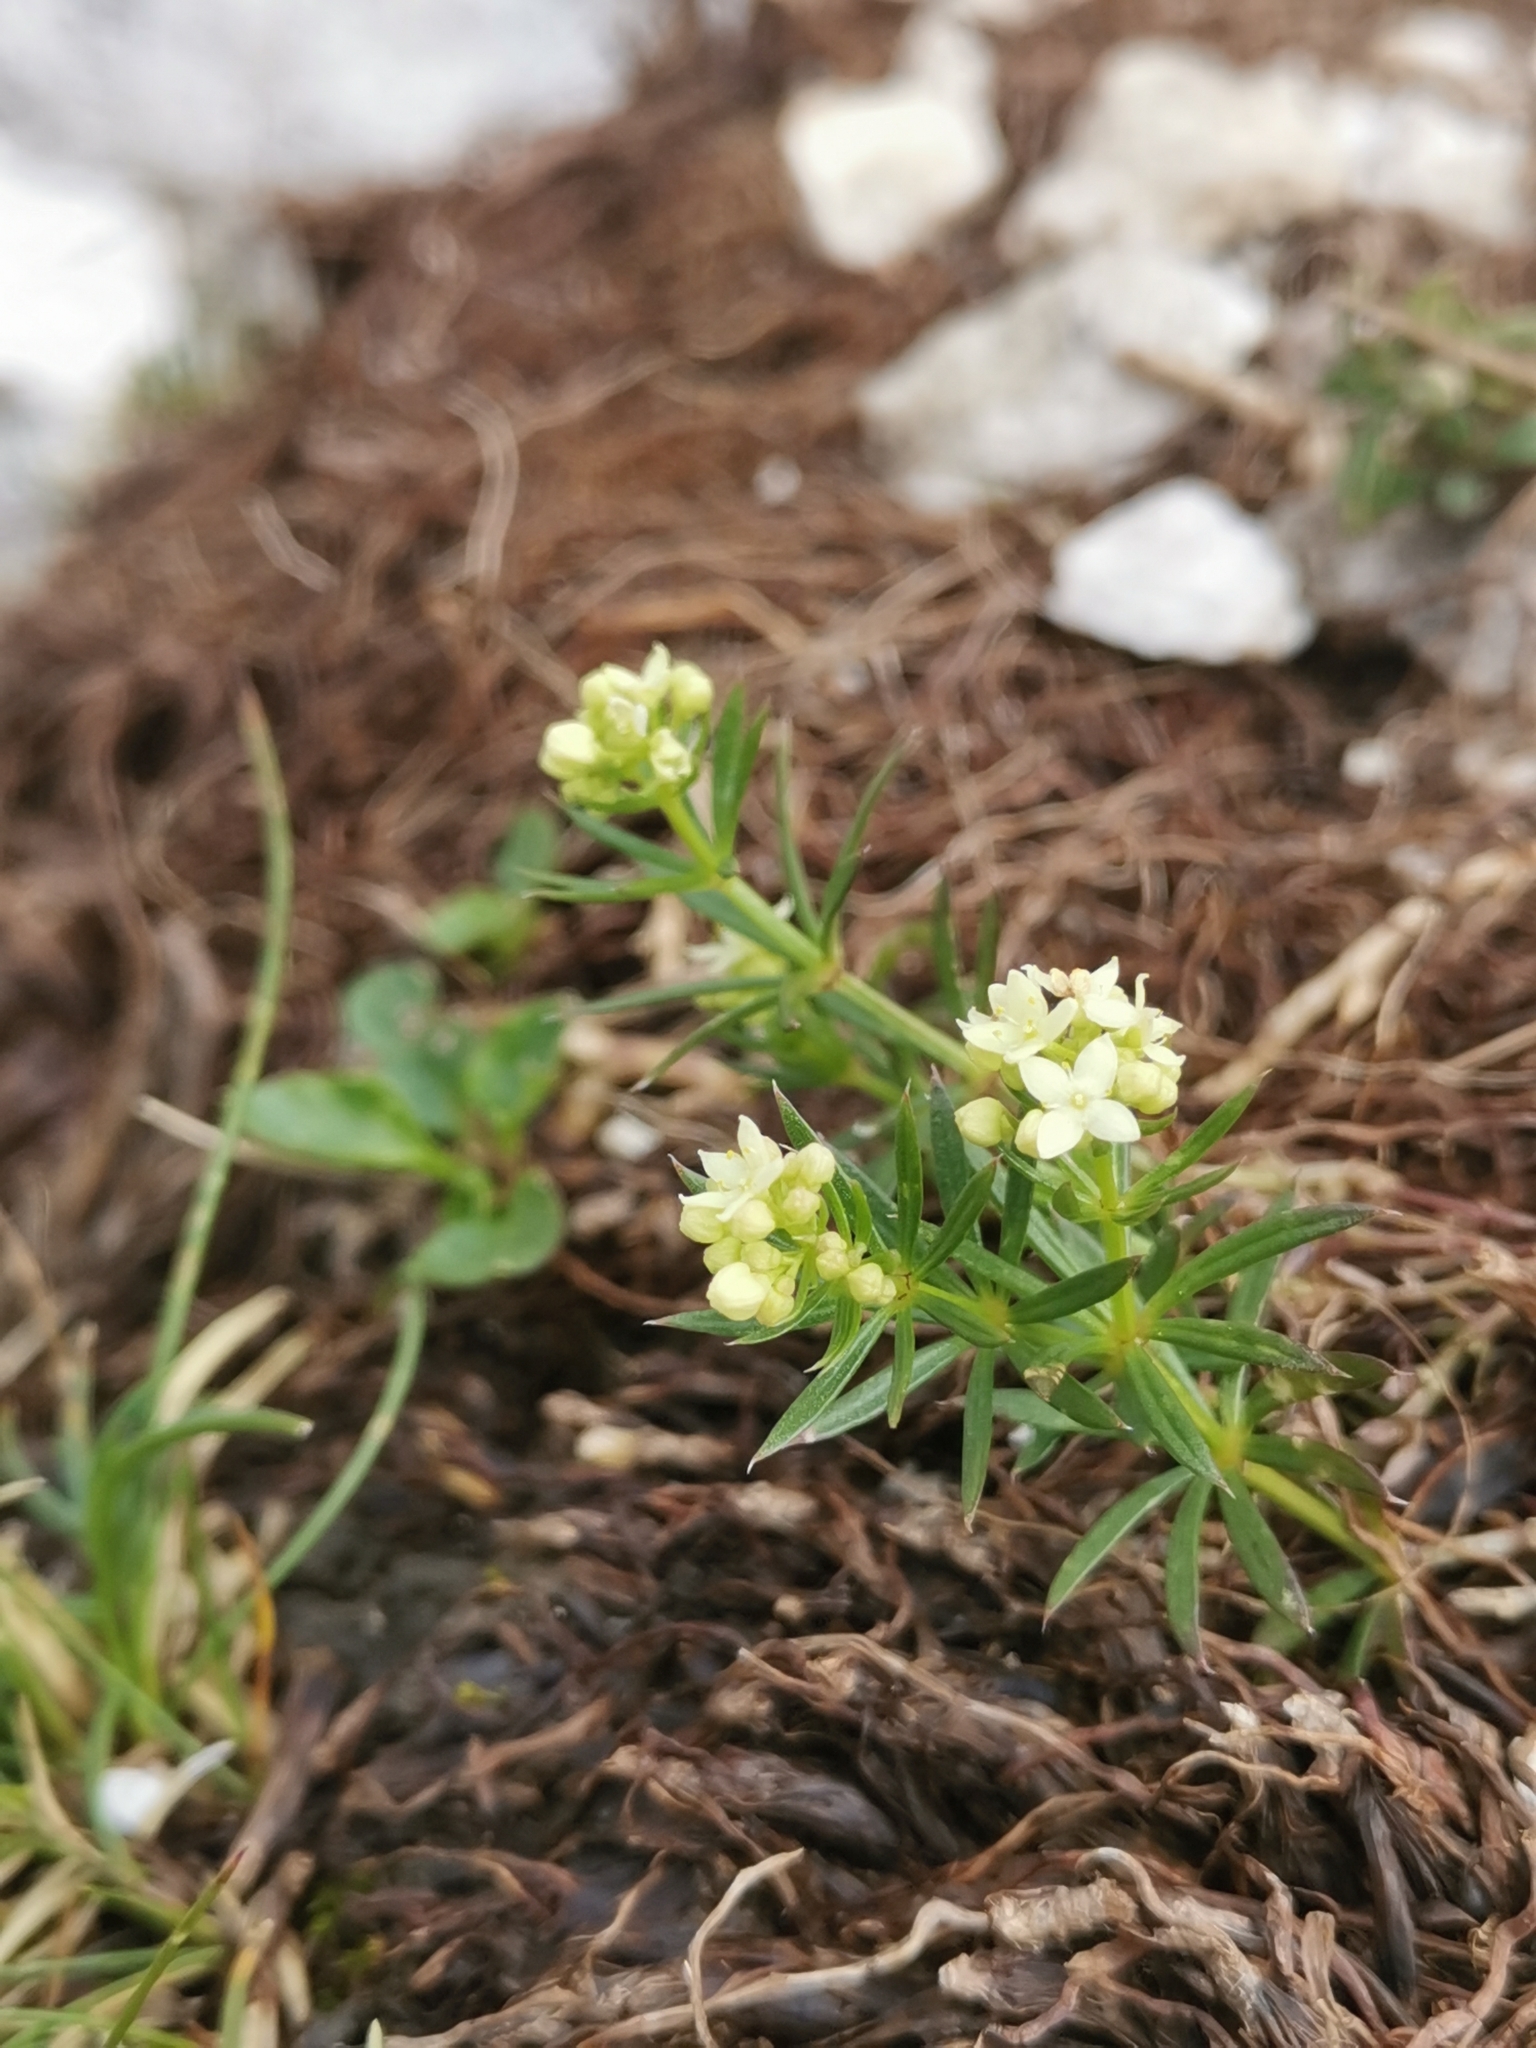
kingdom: Plantae
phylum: Tracheophyta
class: Magnoliopsida
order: Gentianales
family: Rubiaceae
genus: Galium
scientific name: Galium anisophyllon
